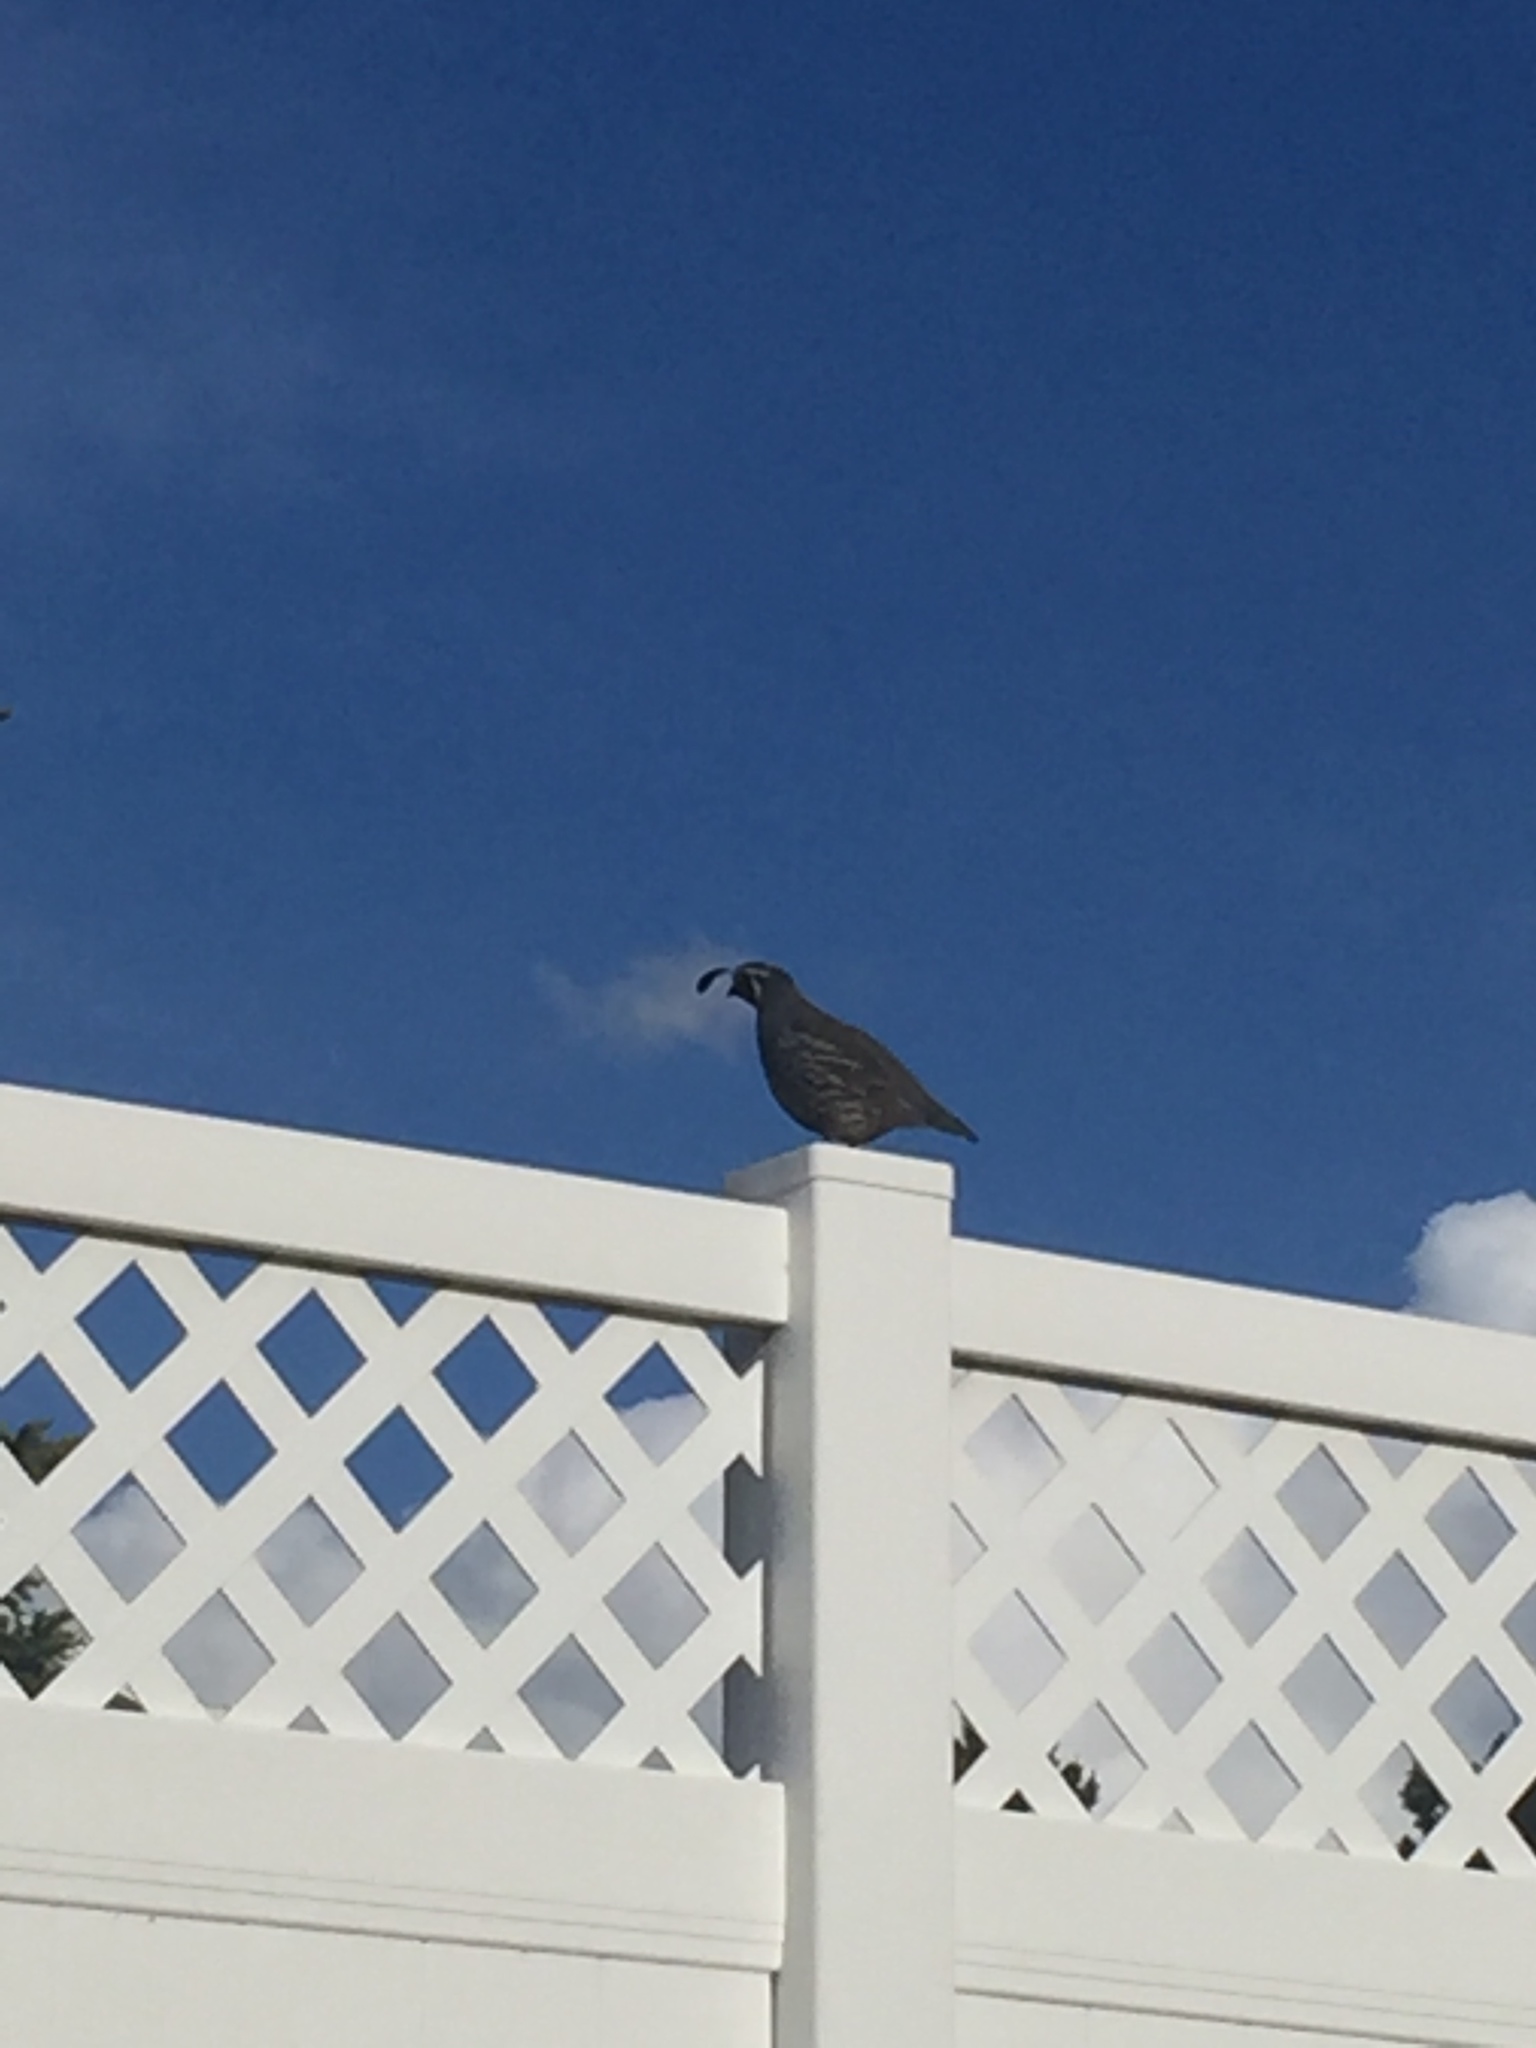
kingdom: Animalia
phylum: Chordata
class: Aves
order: Galliformes
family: Odontophoridae
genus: Callipepla
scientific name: Callipepla californica
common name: California quail
